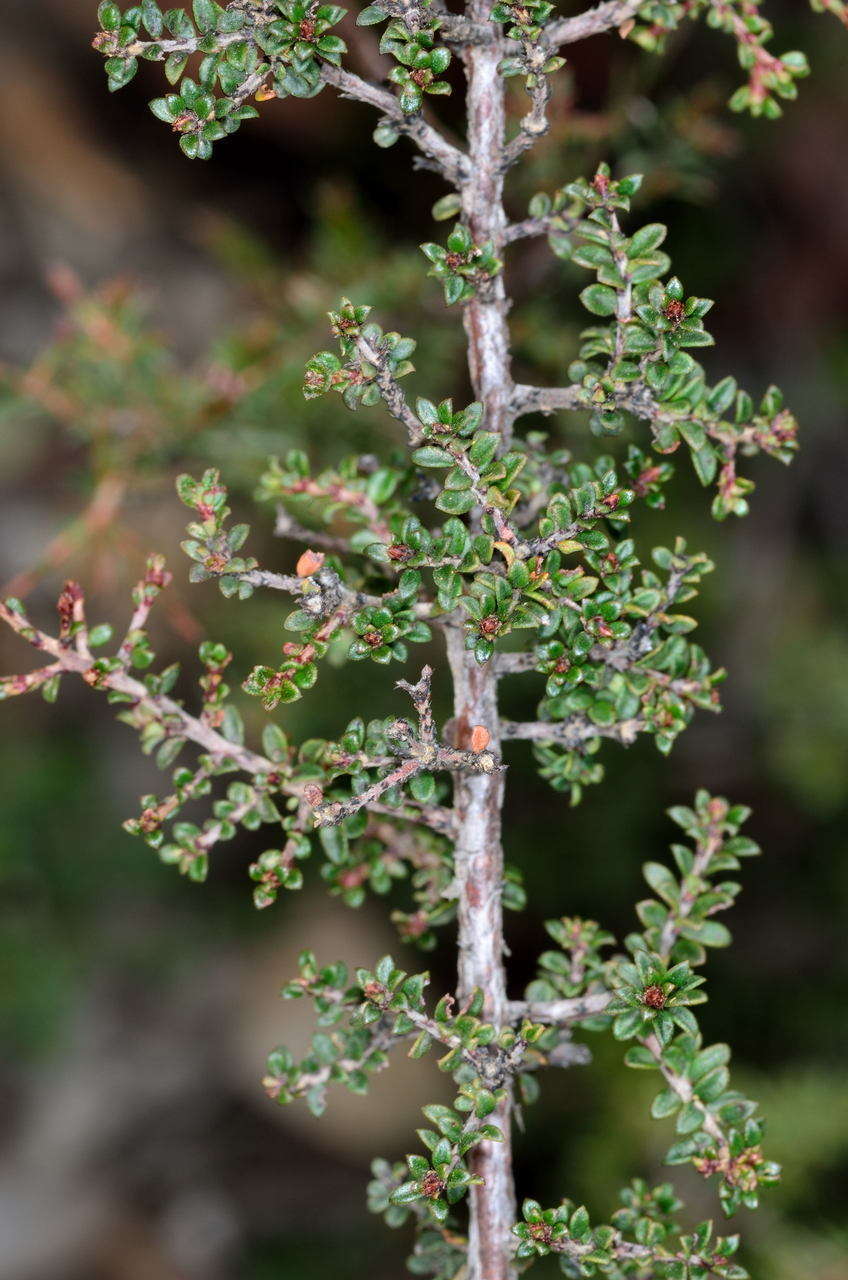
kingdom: Plantae
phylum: Tracheophyta
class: Magnoliopsida
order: Fabales
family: Fabaceae
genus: Pultenaea
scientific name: Pultenaea gunnii
